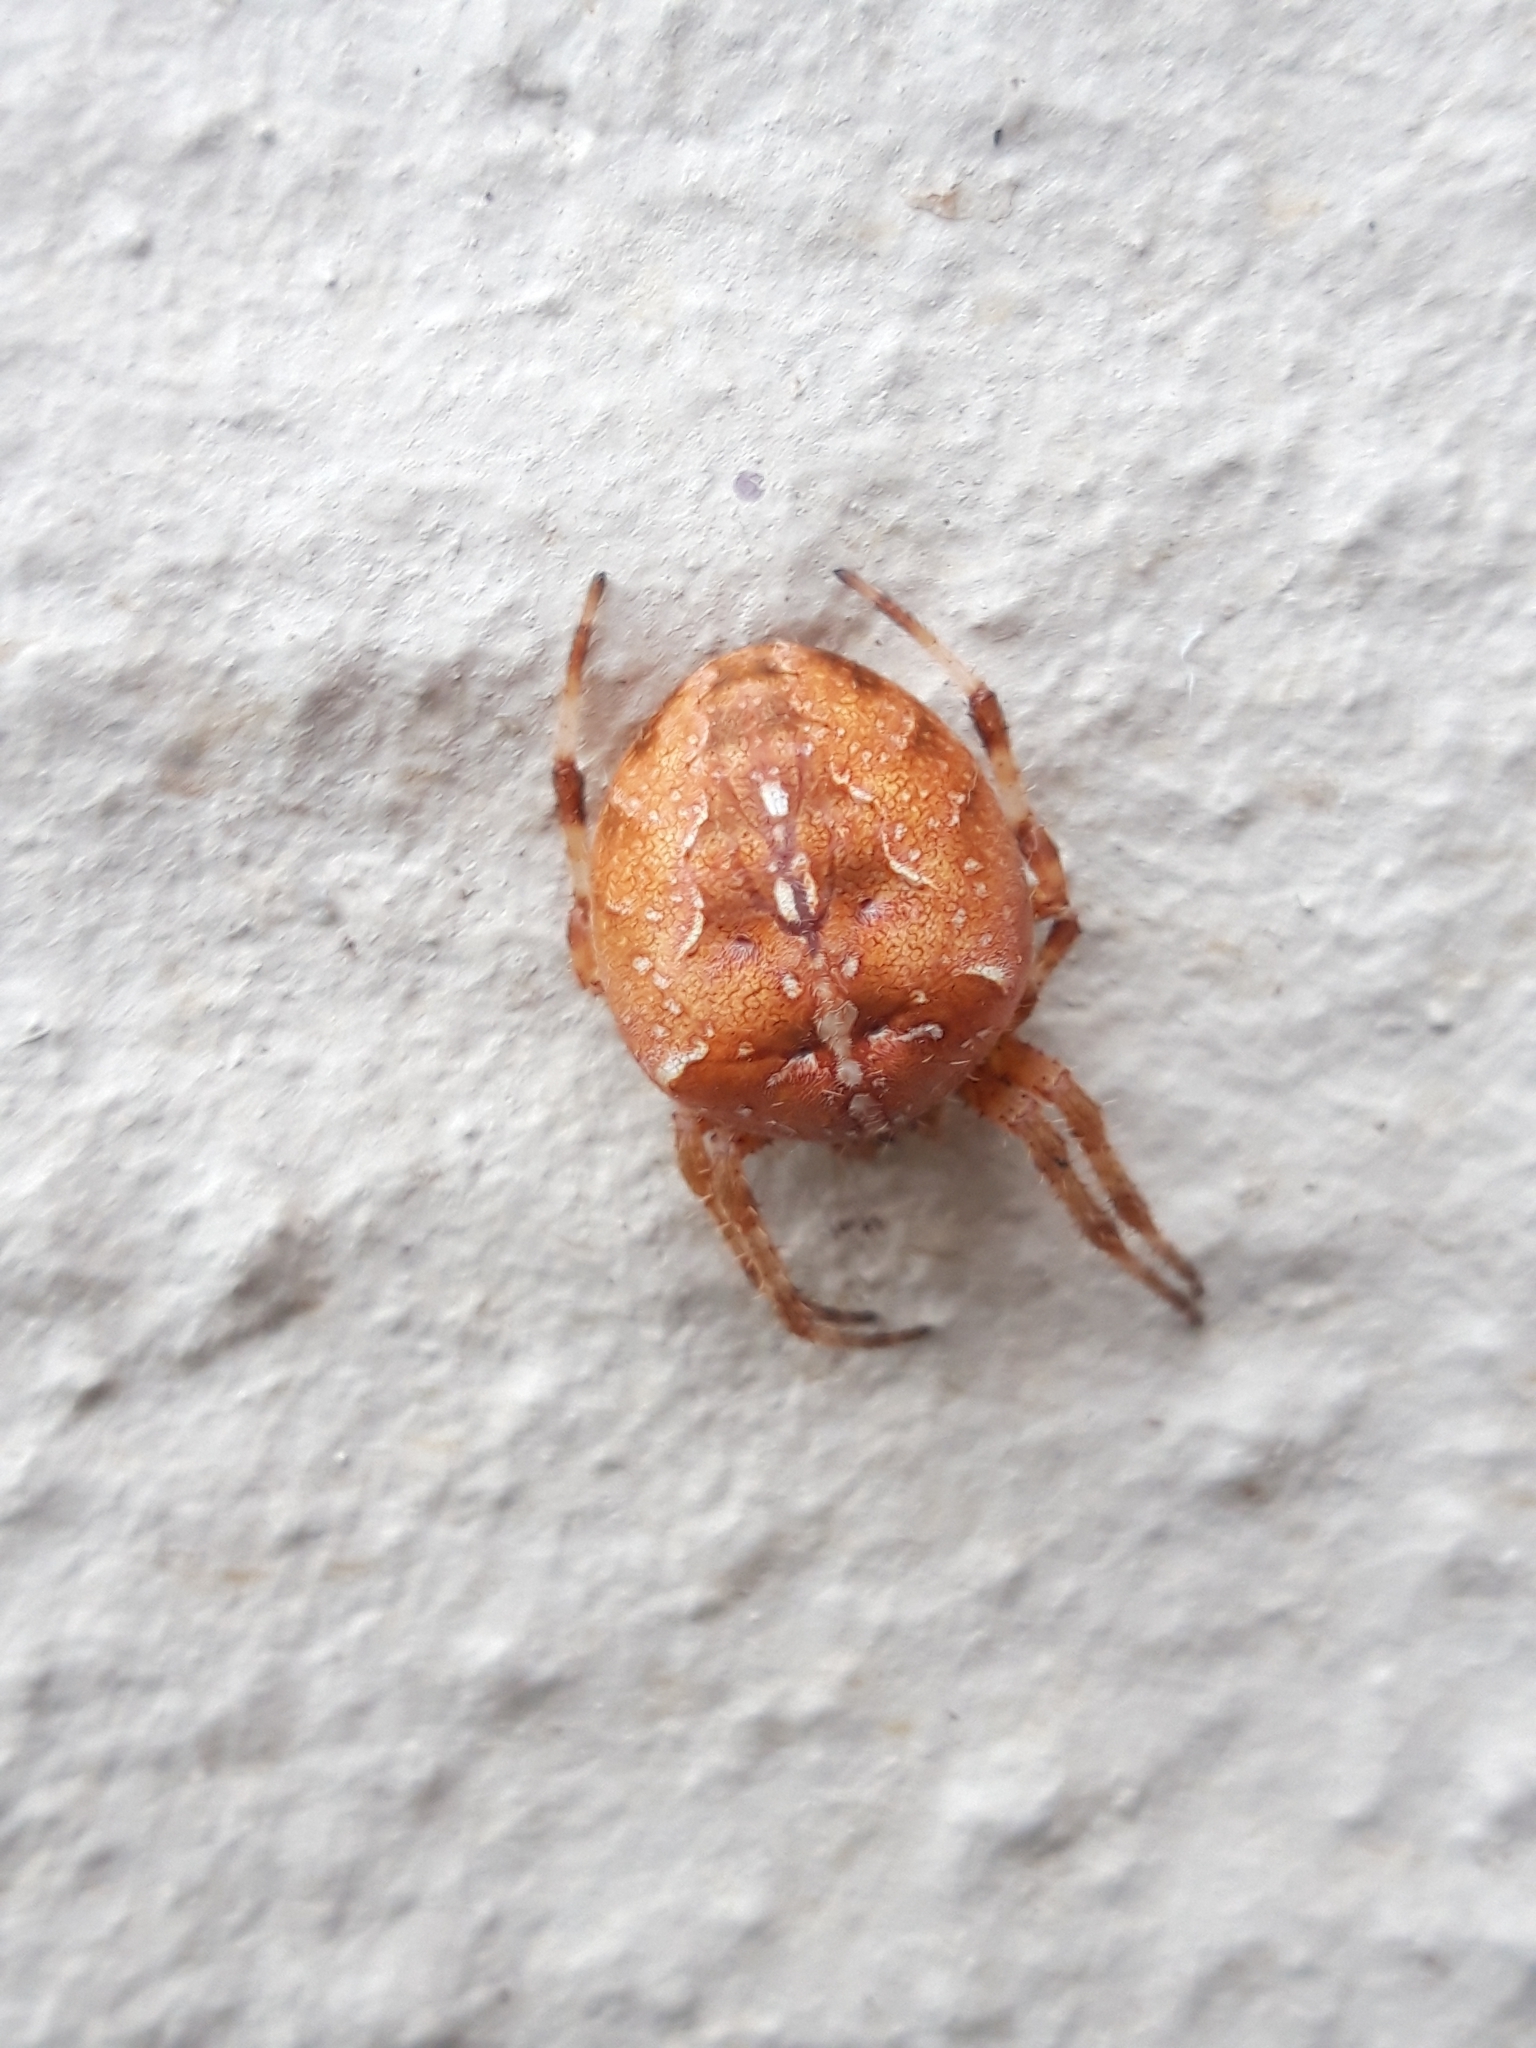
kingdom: Animalia
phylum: Arthropoda
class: Arachnida
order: Araneae
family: Araneidae
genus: Araneus
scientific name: Araneus diadematus
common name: Cross orbweaver
